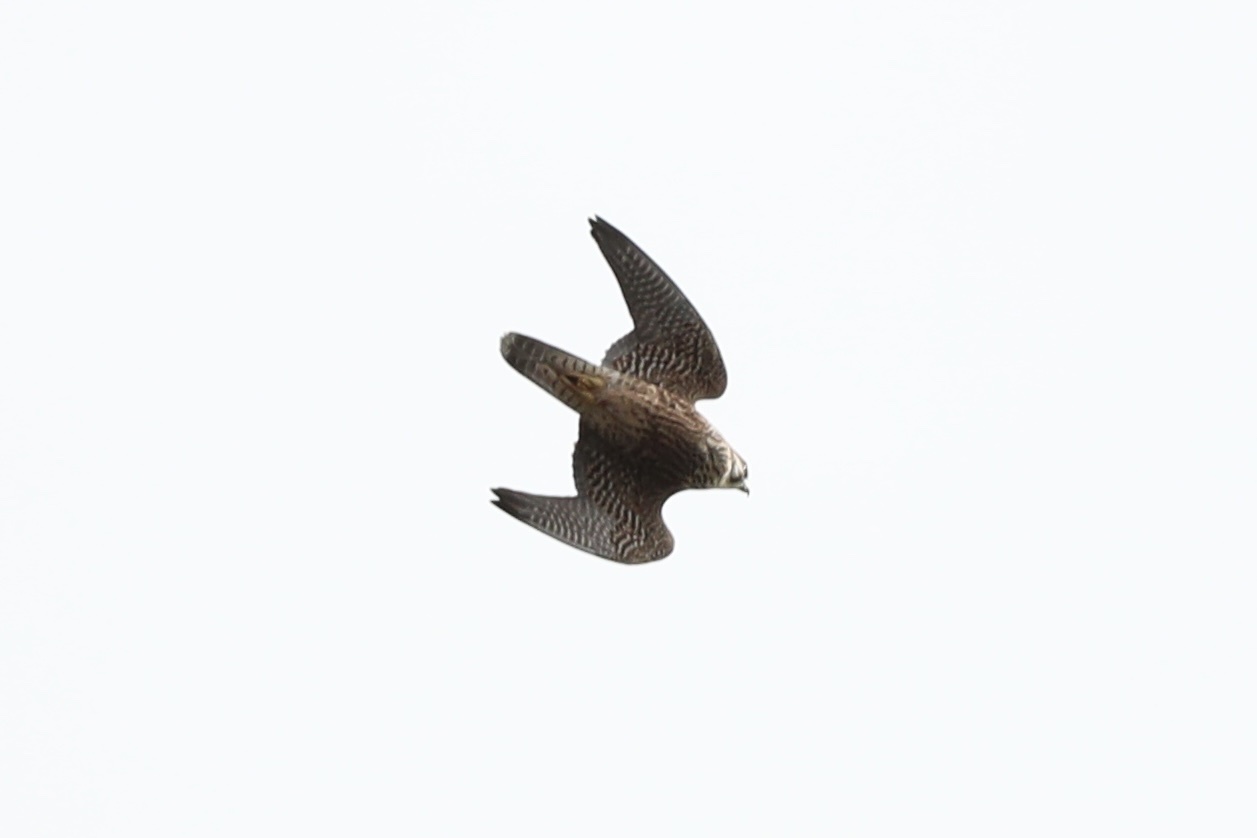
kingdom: Animalia
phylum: Chordata
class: Aves
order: Falconiformes
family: Falconidae
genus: Falco
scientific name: Falco peregrinus
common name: Peregrine falcon
